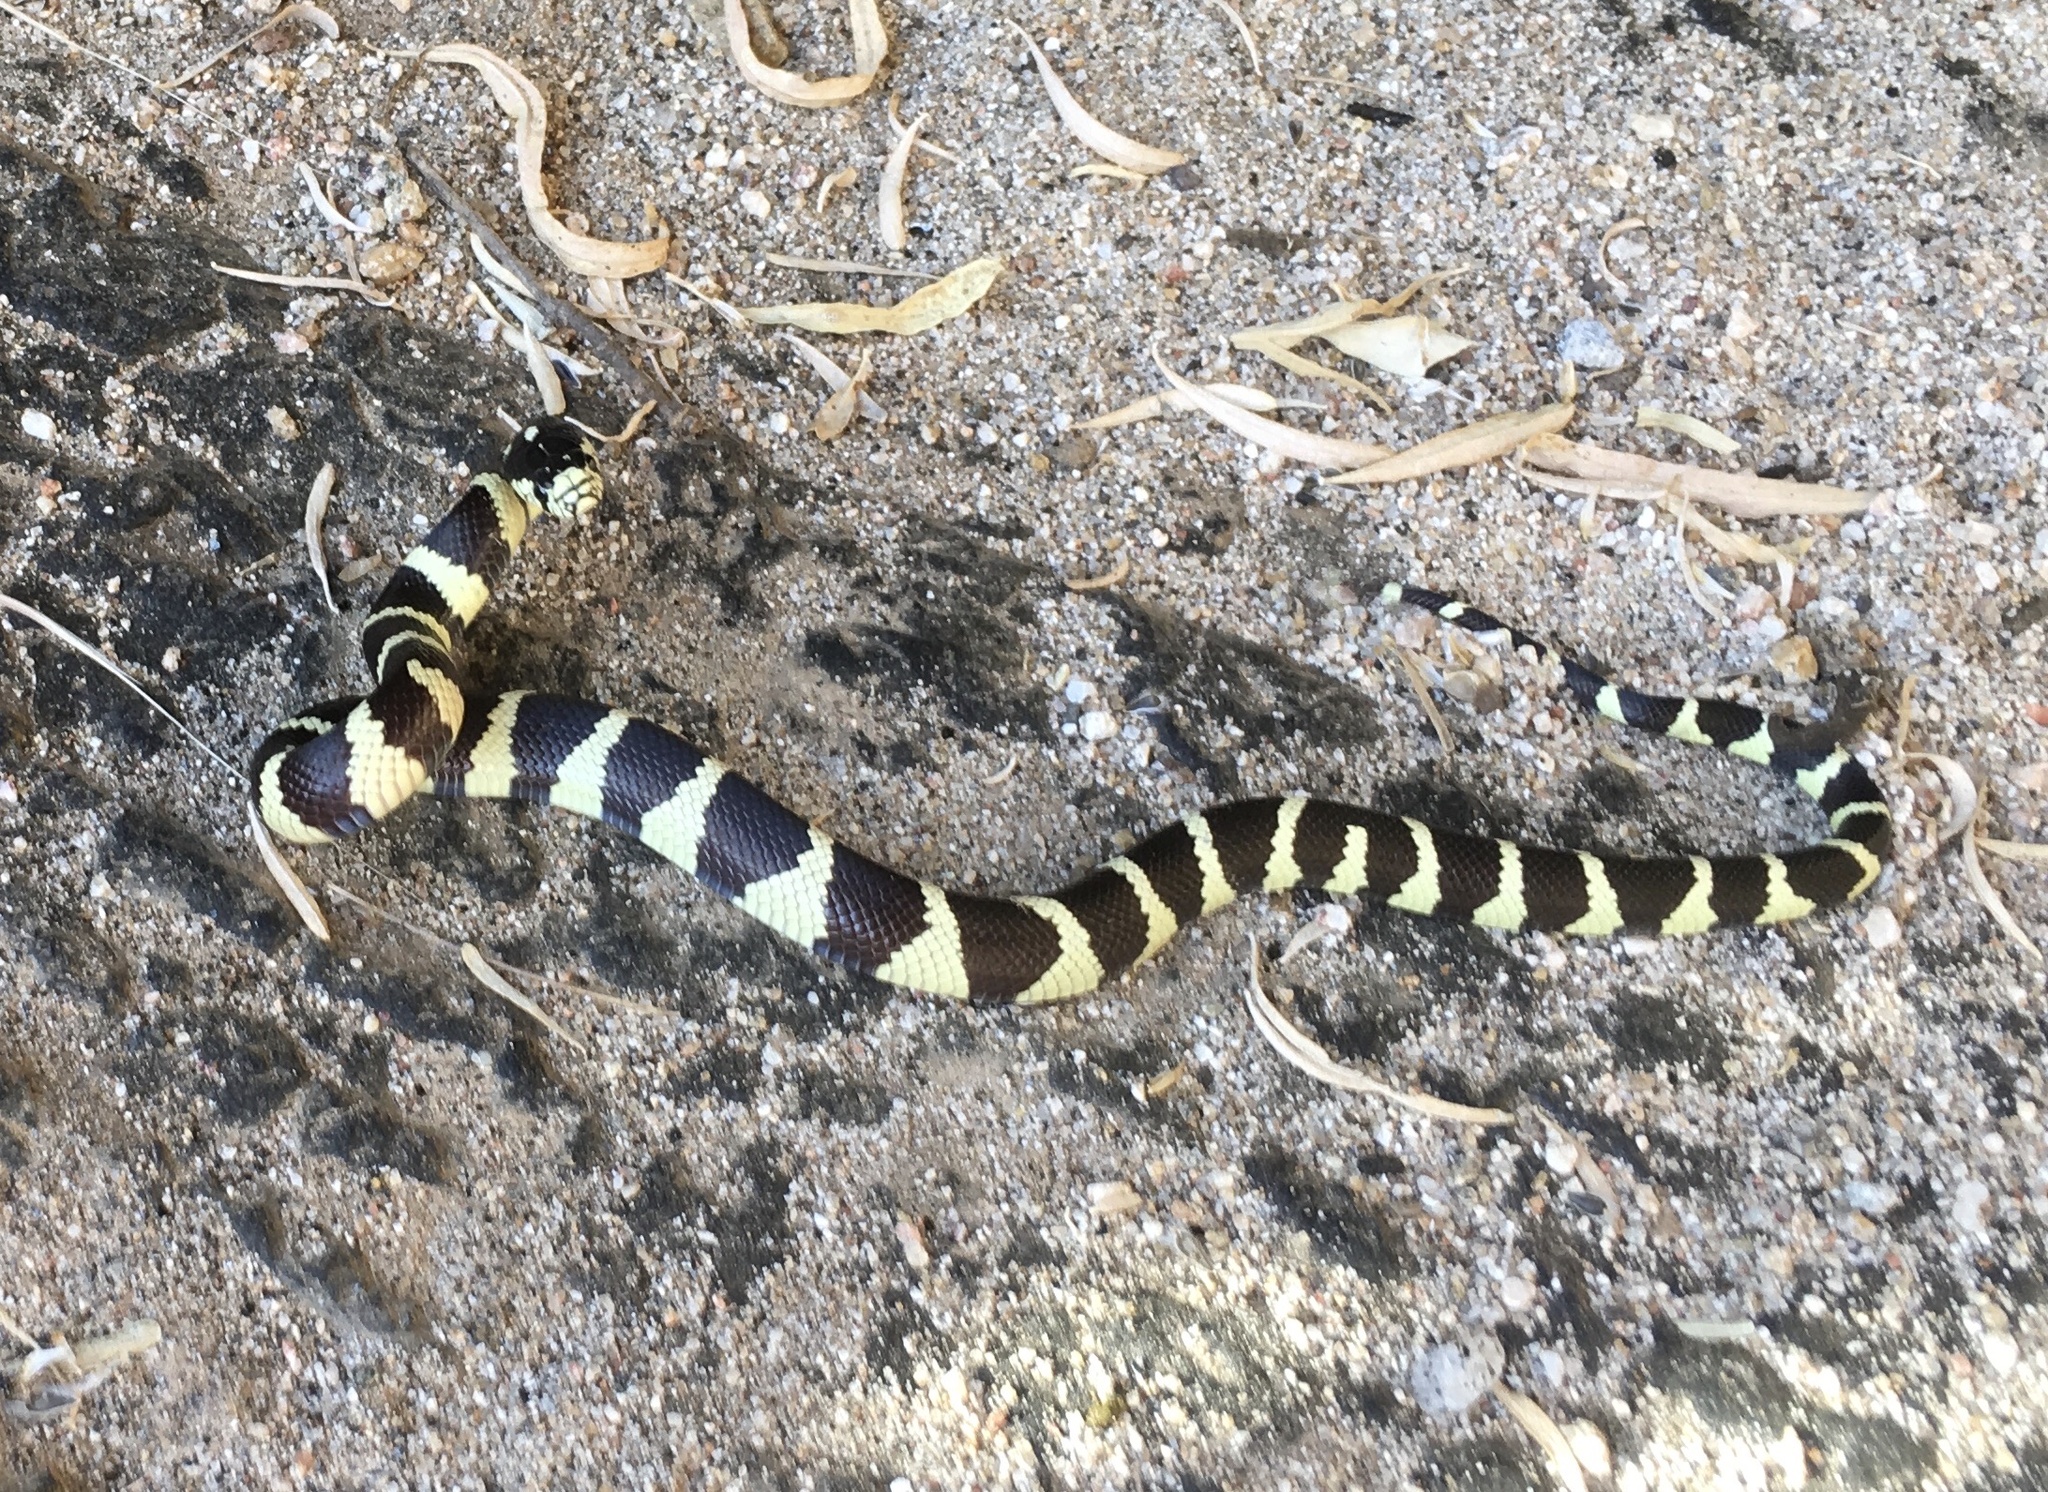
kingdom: Animalia
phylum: Chordata
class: Squamata
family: Colubridae
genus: Lampropeltis
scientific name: Lampropeltis californiae
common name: California kingsnake
